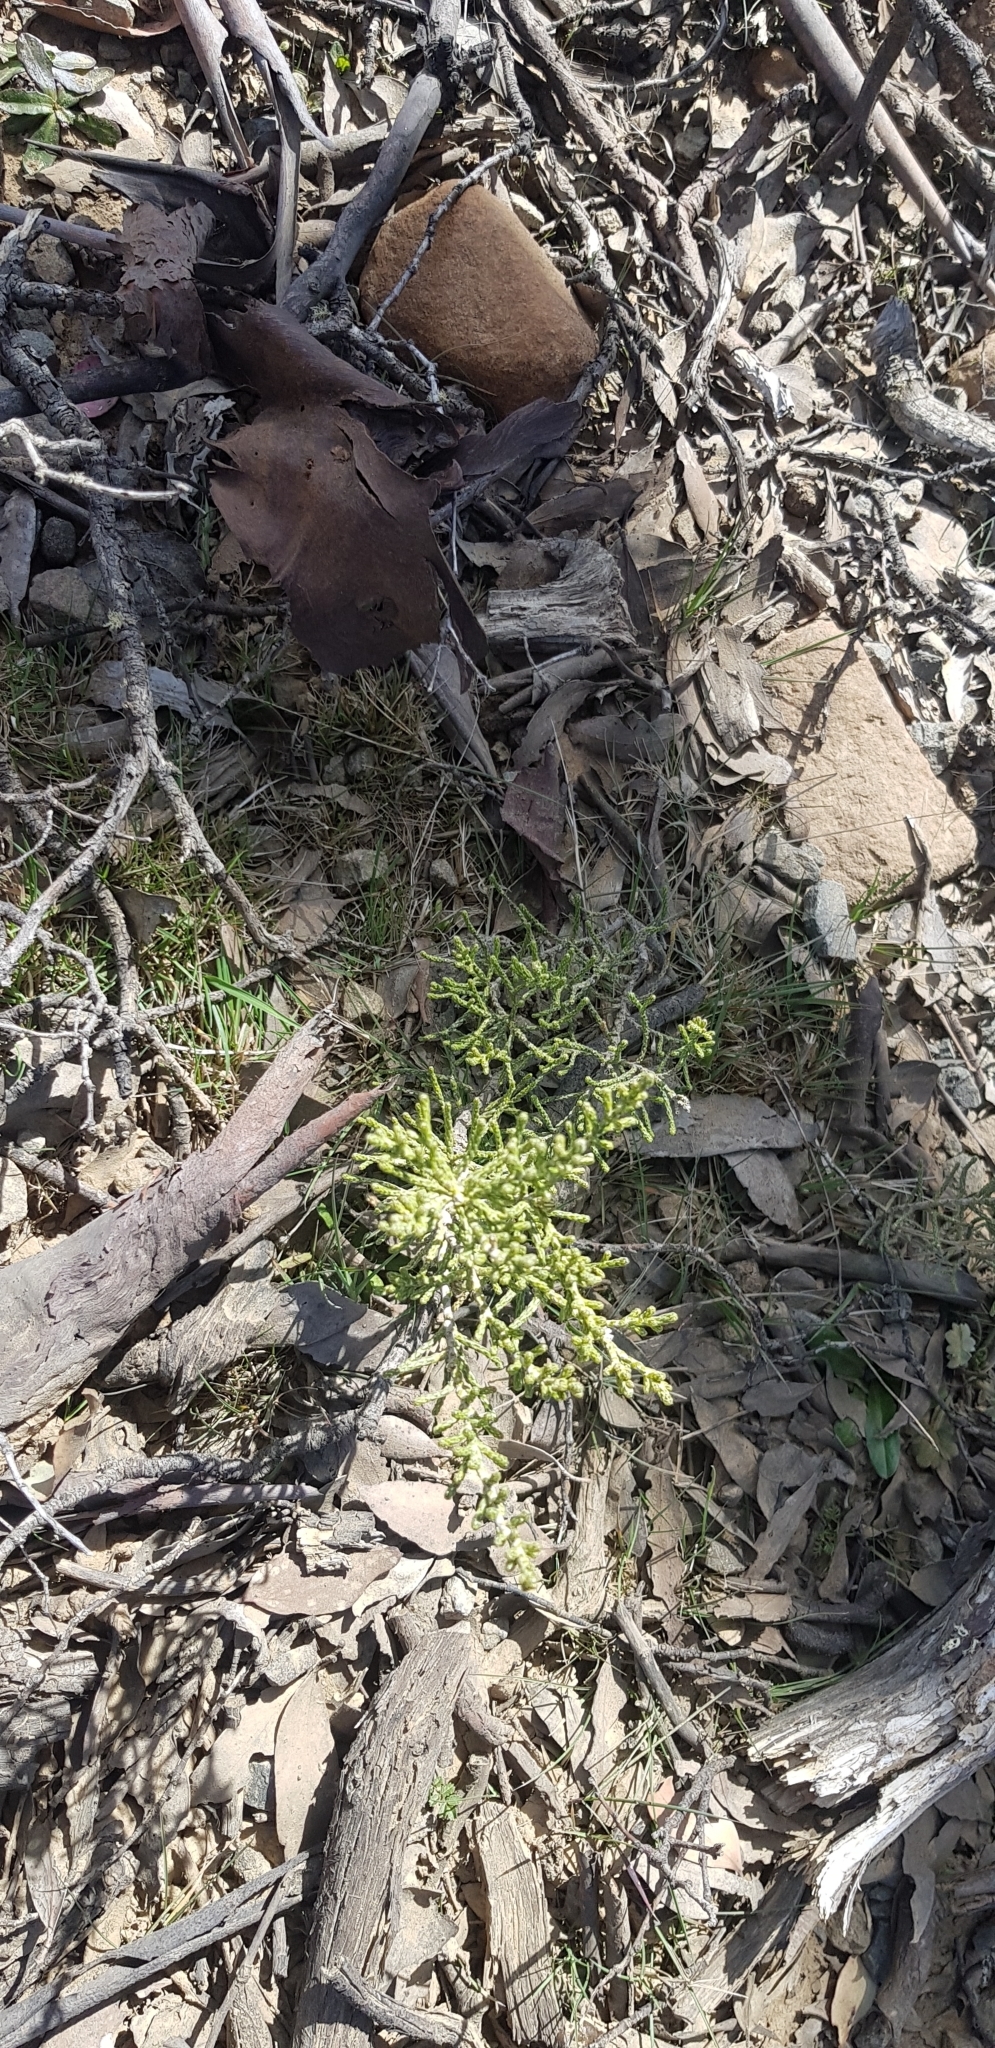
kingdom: Plantae
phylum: Tracheophyta
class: Magnoliopsida
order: Asterales
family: Asteraceae
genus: Ozothamnus
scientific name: Ozothamnus hookeri
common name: Kerosene-bush
